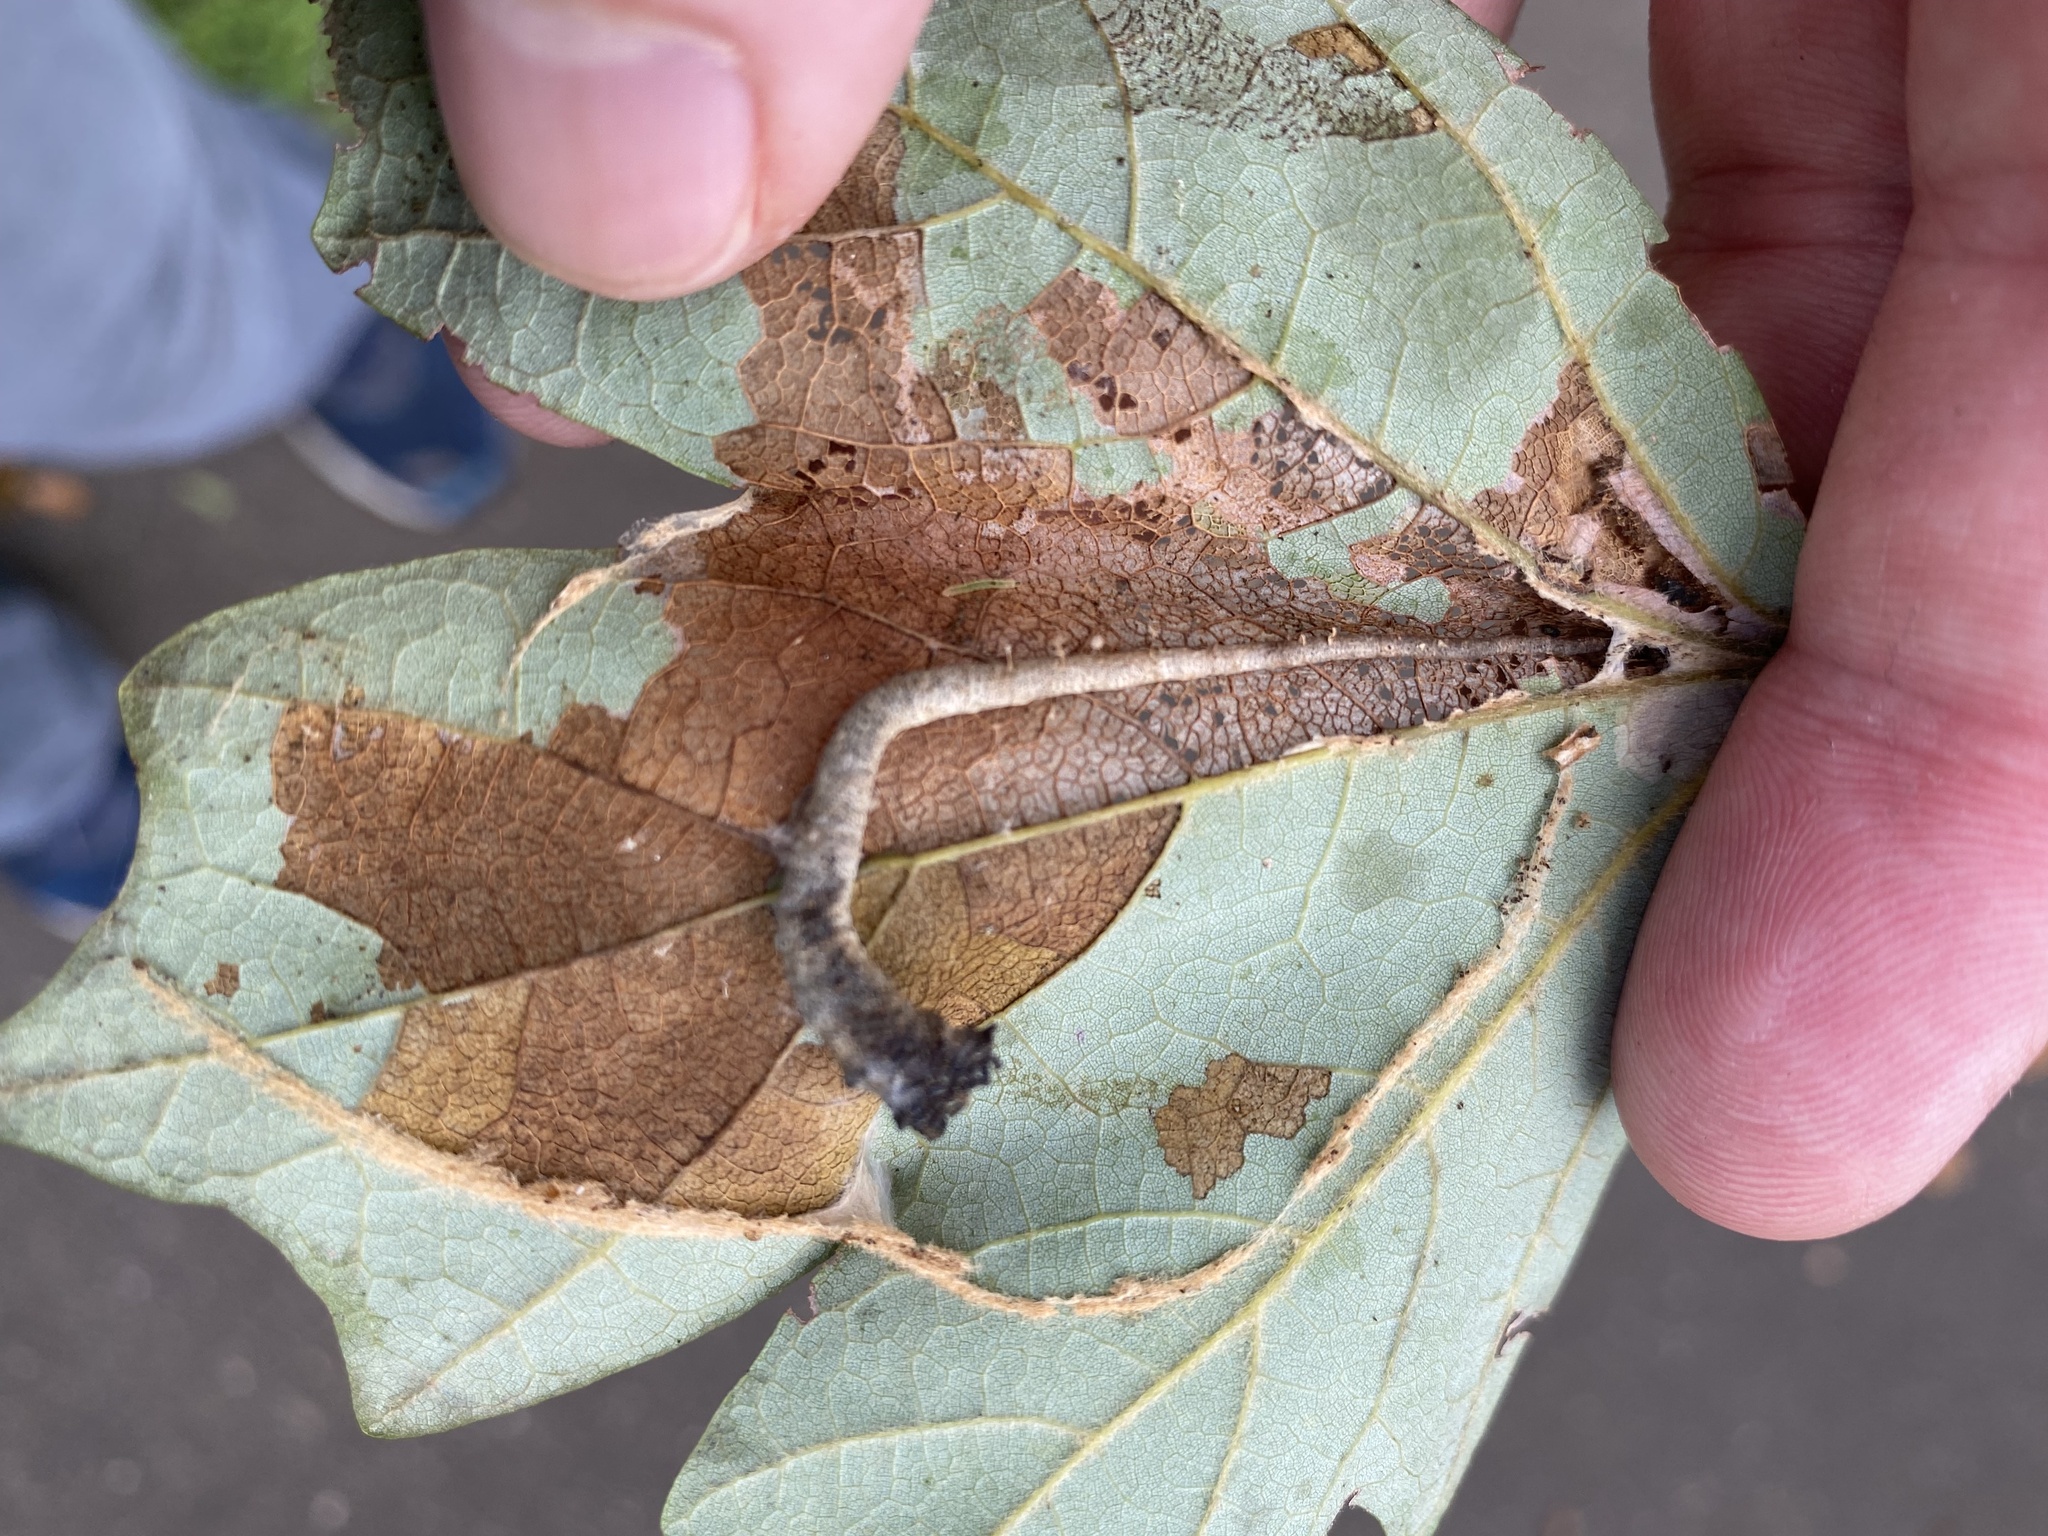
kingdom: Animalia
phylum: Arthropoda
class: Insecta
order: Lepidoptera
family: Tortricidae
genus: Catastega
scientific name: Catastega aceriella
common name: Maple trumpet skeletonizer moth
